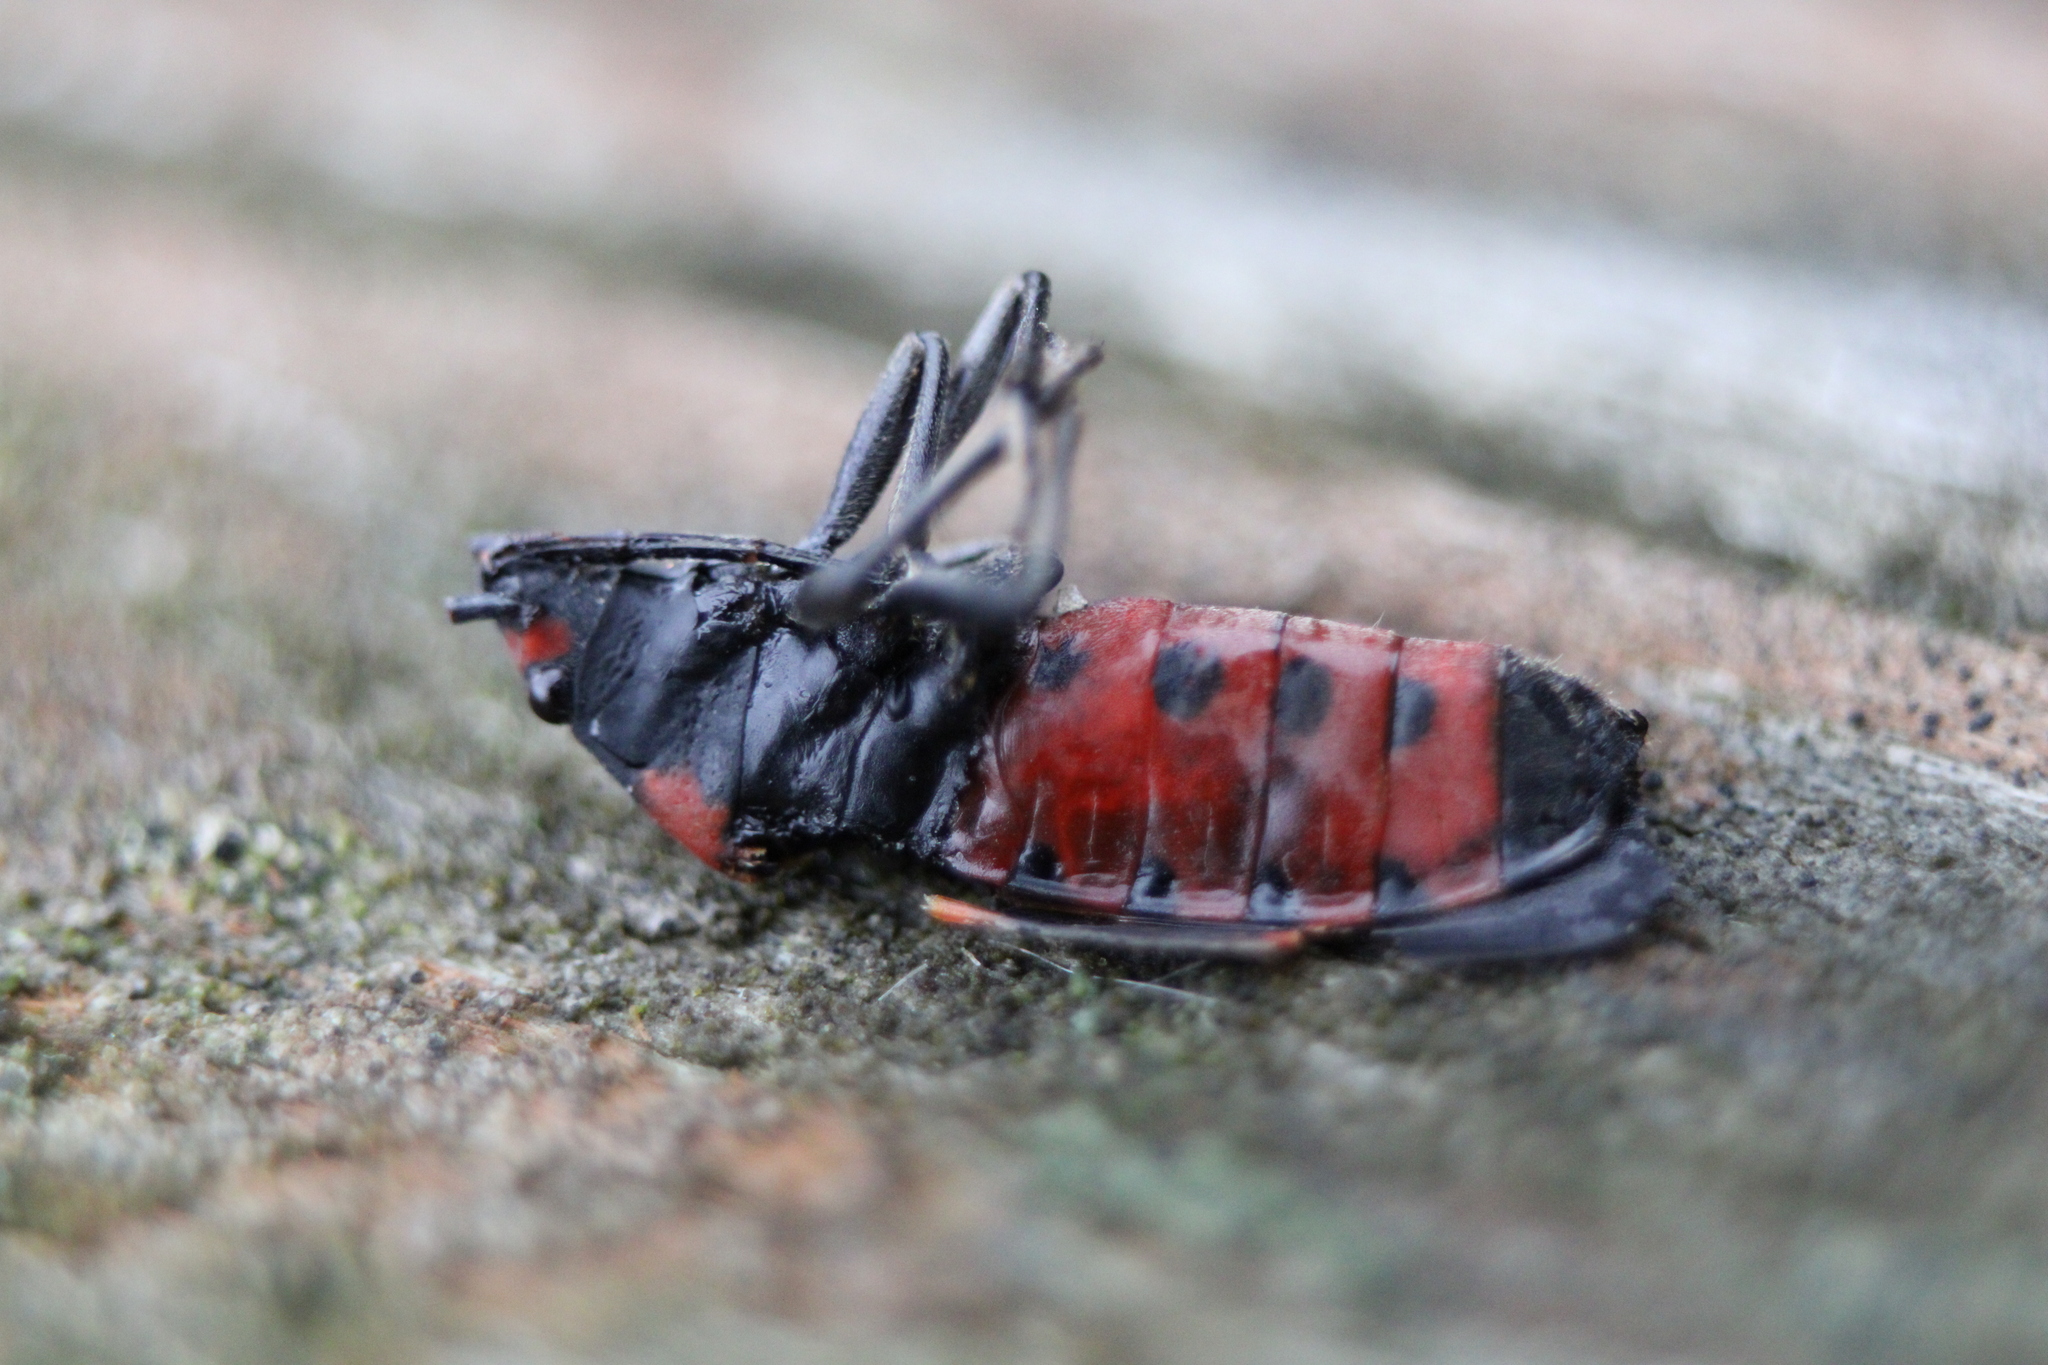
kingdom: Animalia
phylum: Arthropoda
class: Insecta
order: Hemiptera
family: Lygaeidae
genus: Lygaeus
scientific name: Lygaeus kalmii
